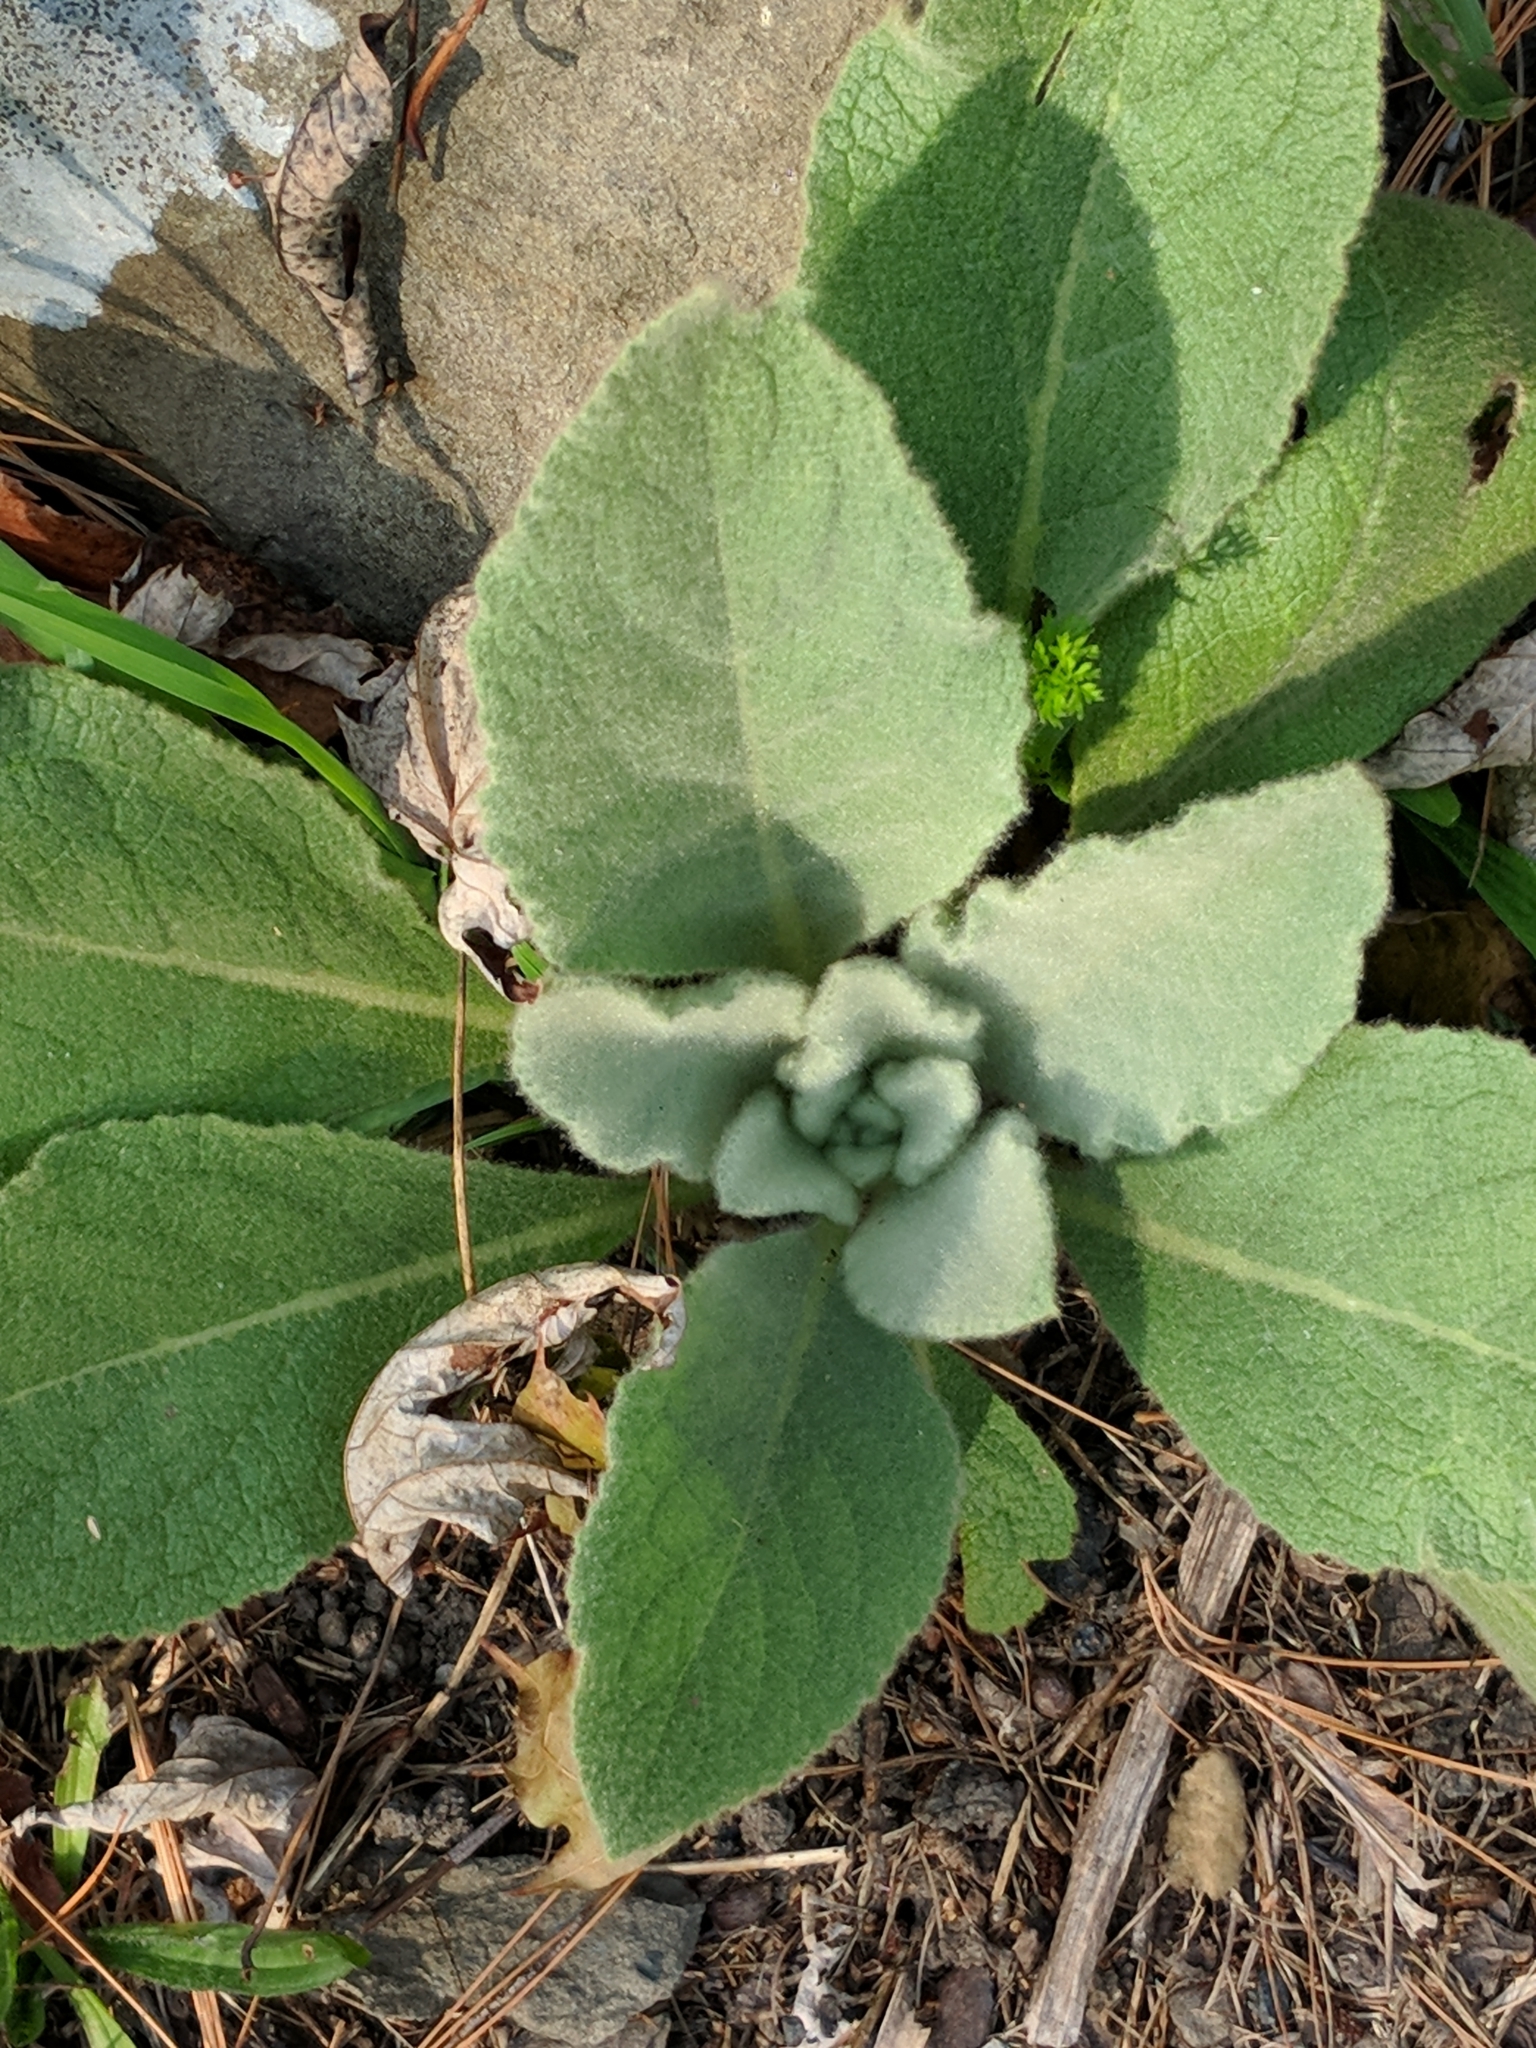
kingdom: Plantae
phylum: Tracheophyta
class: Magnoliopsida
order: Lamiales
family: Scrophulariaceae
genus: Verbascum
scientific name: Verbascum thapsus
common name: Common mullein
